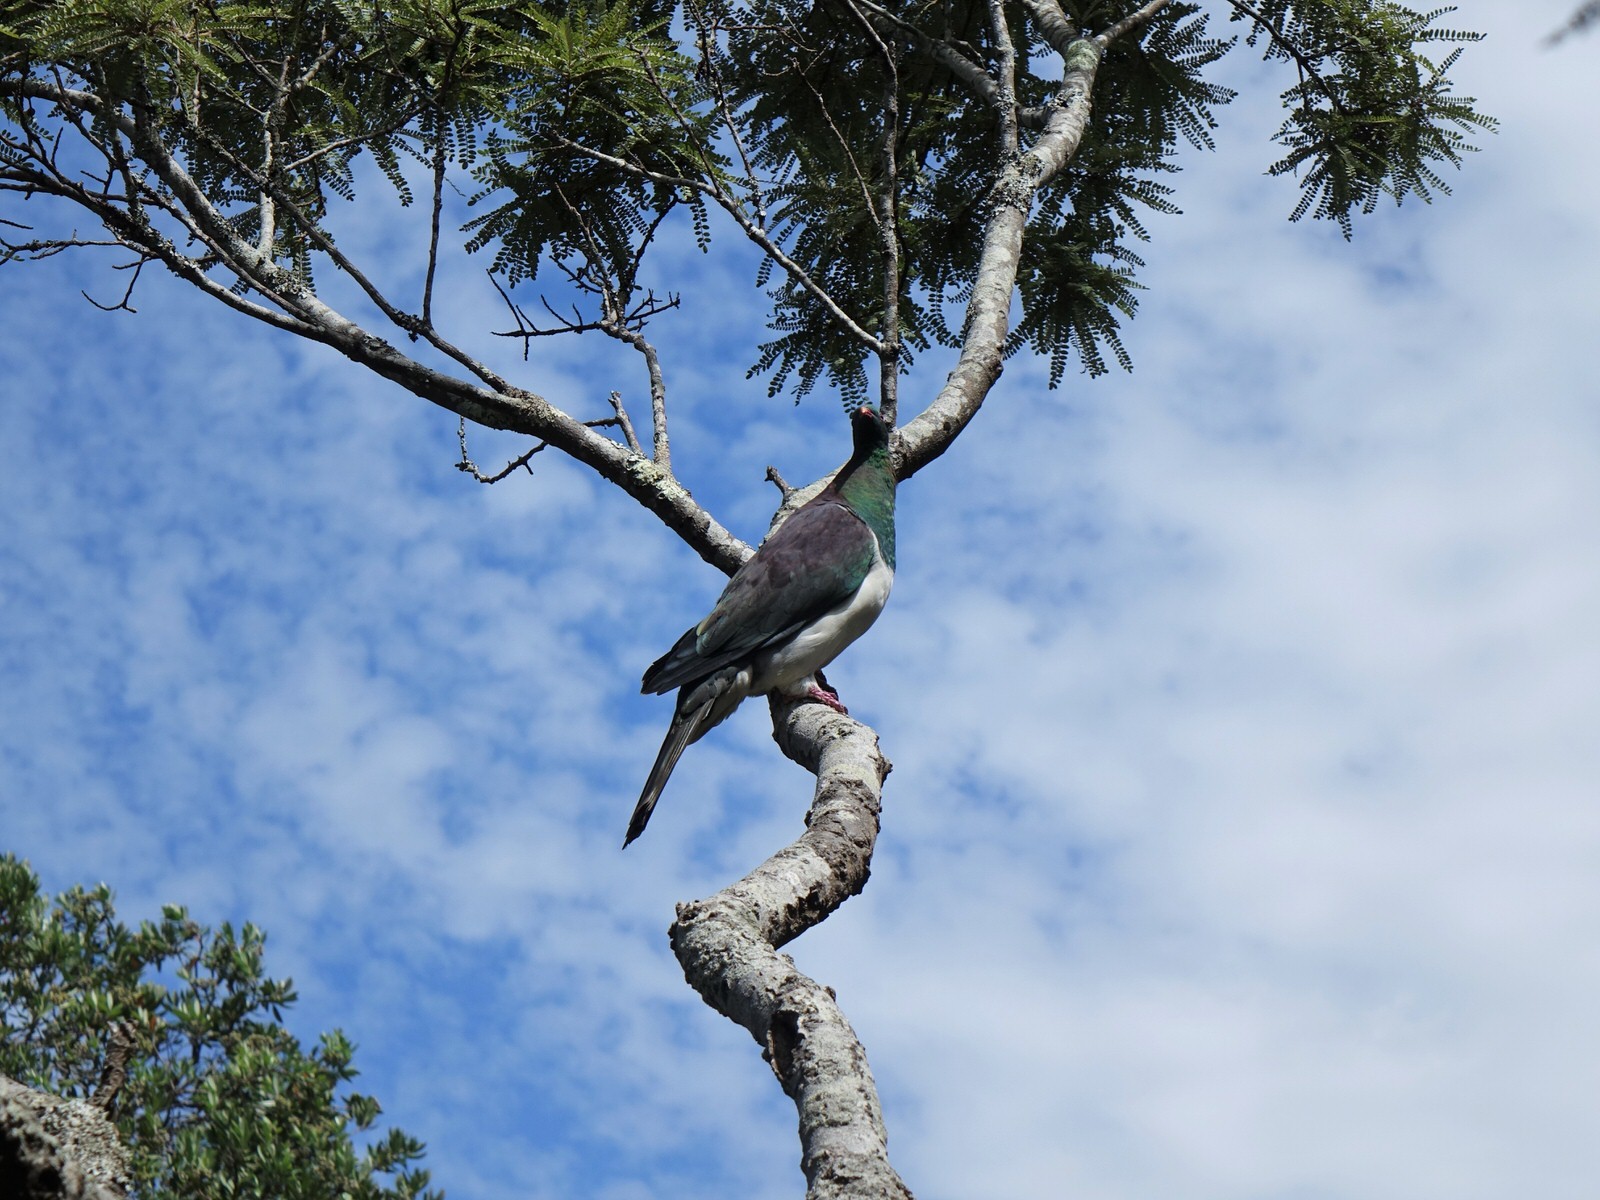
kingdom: Animalia
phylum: Chordata
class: Aves
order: Columbiformes
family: Columbidae
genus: Hemiphaga
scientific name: Hemiphaga novaeseelandiae
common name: New zealand pigeon
